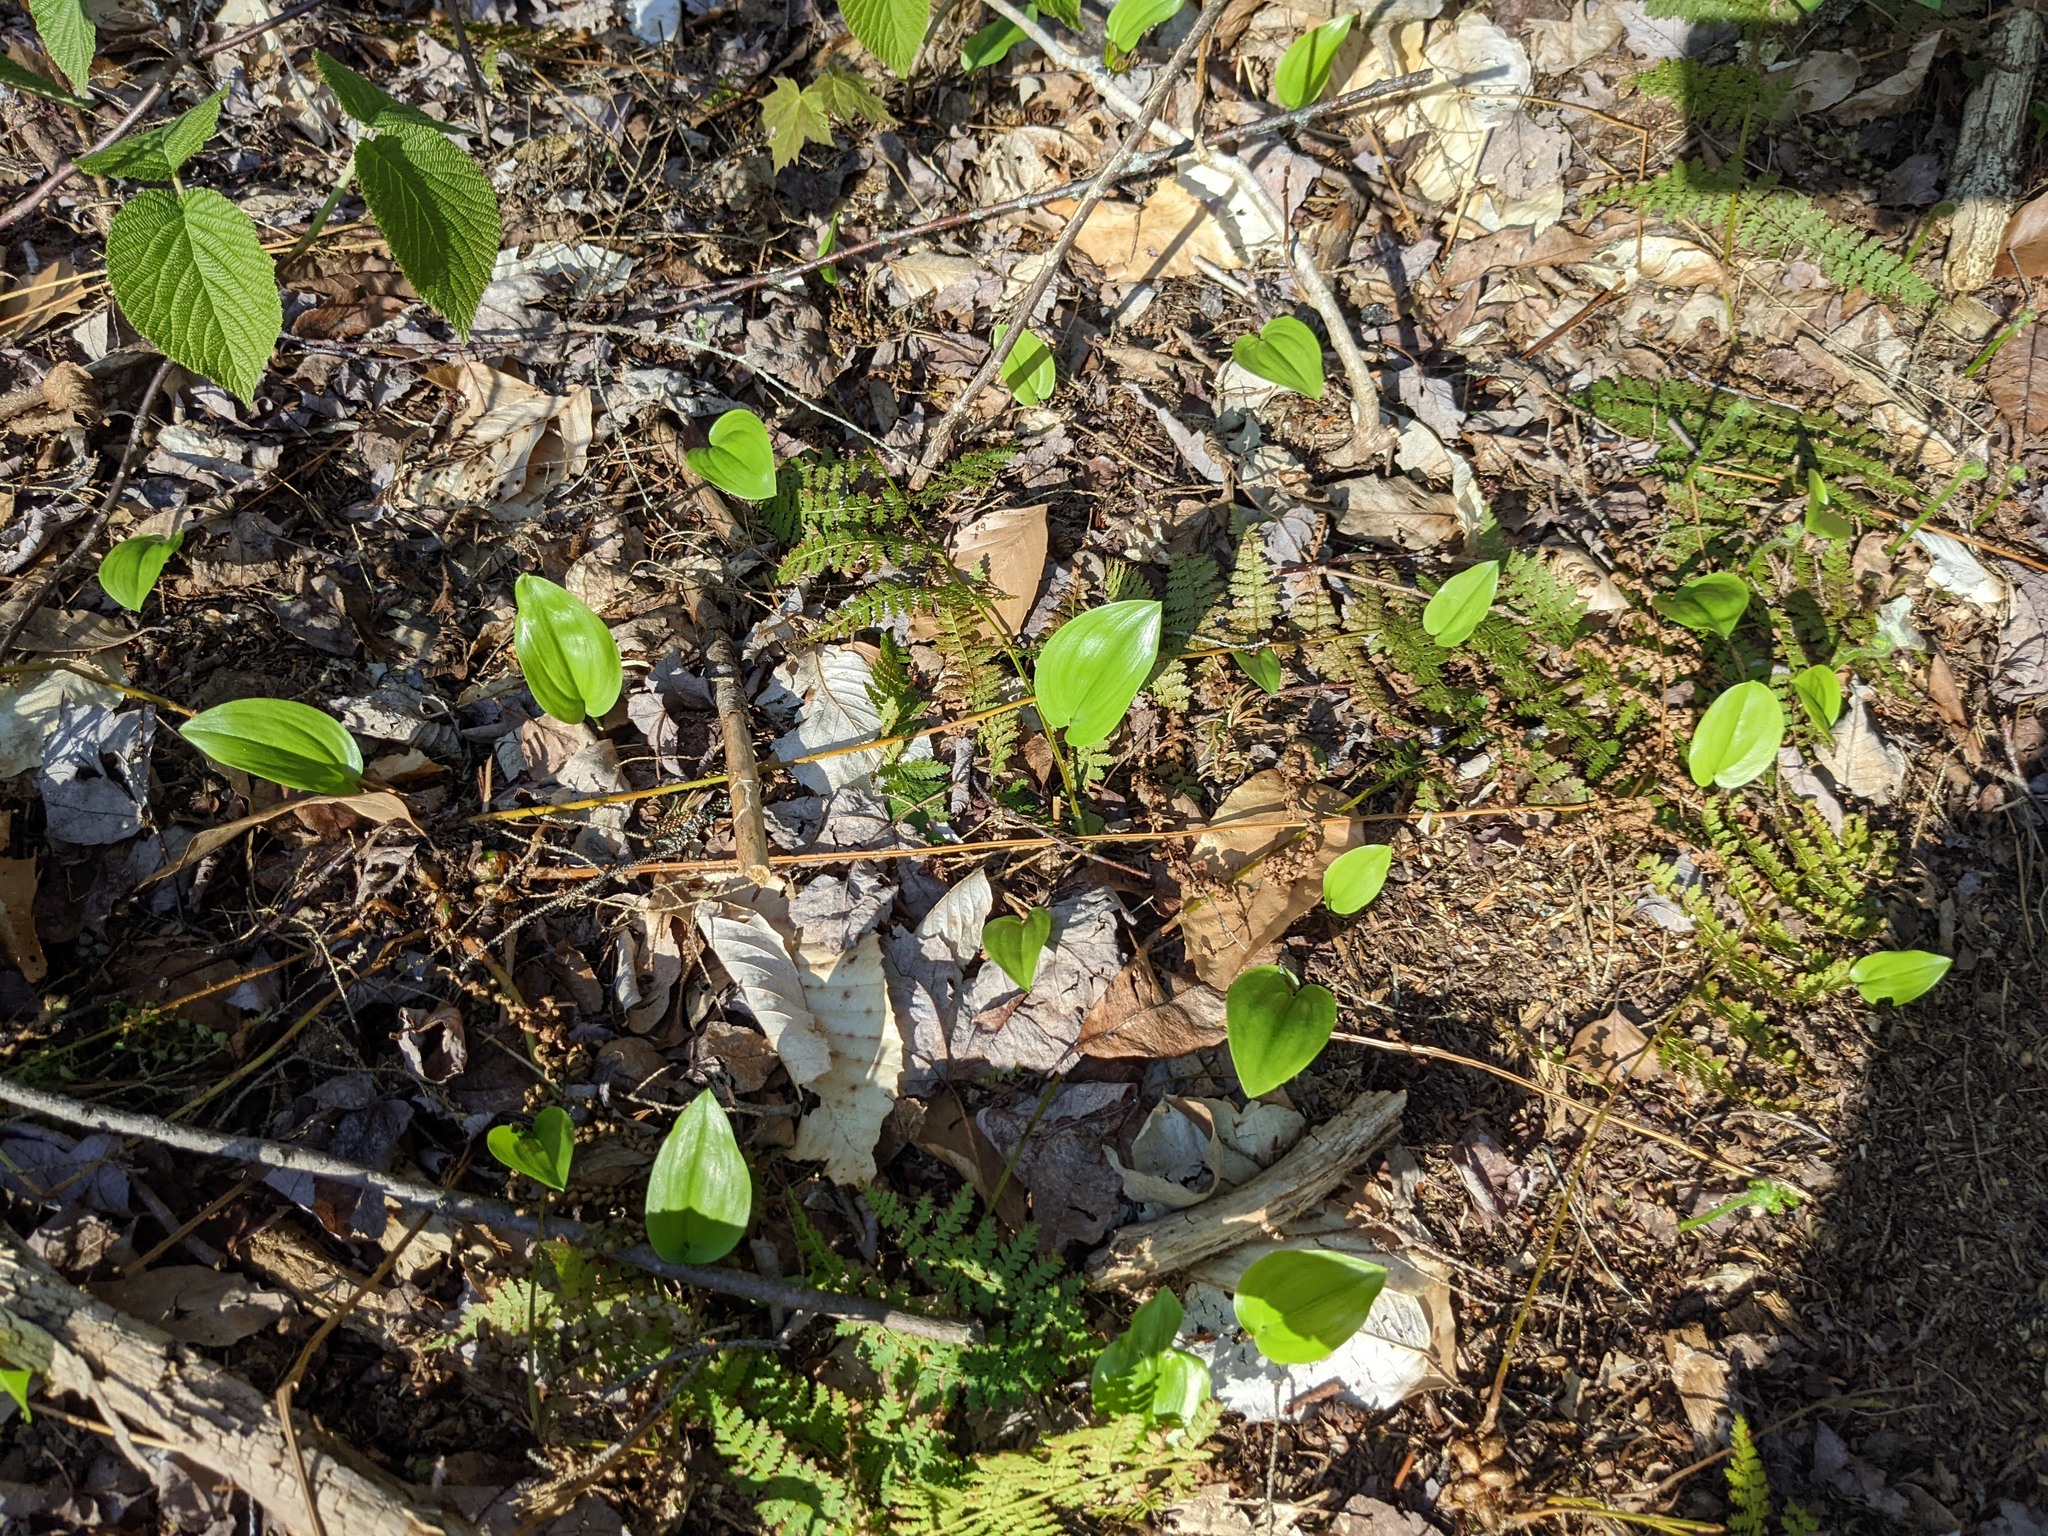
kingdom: Plantae
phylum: Tracheophyta
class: Liliopsida
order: Asparagales
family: Asparagaceae
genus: Maianthemum
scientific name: Maianthemum canadense
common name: False lily-of-the-valley
